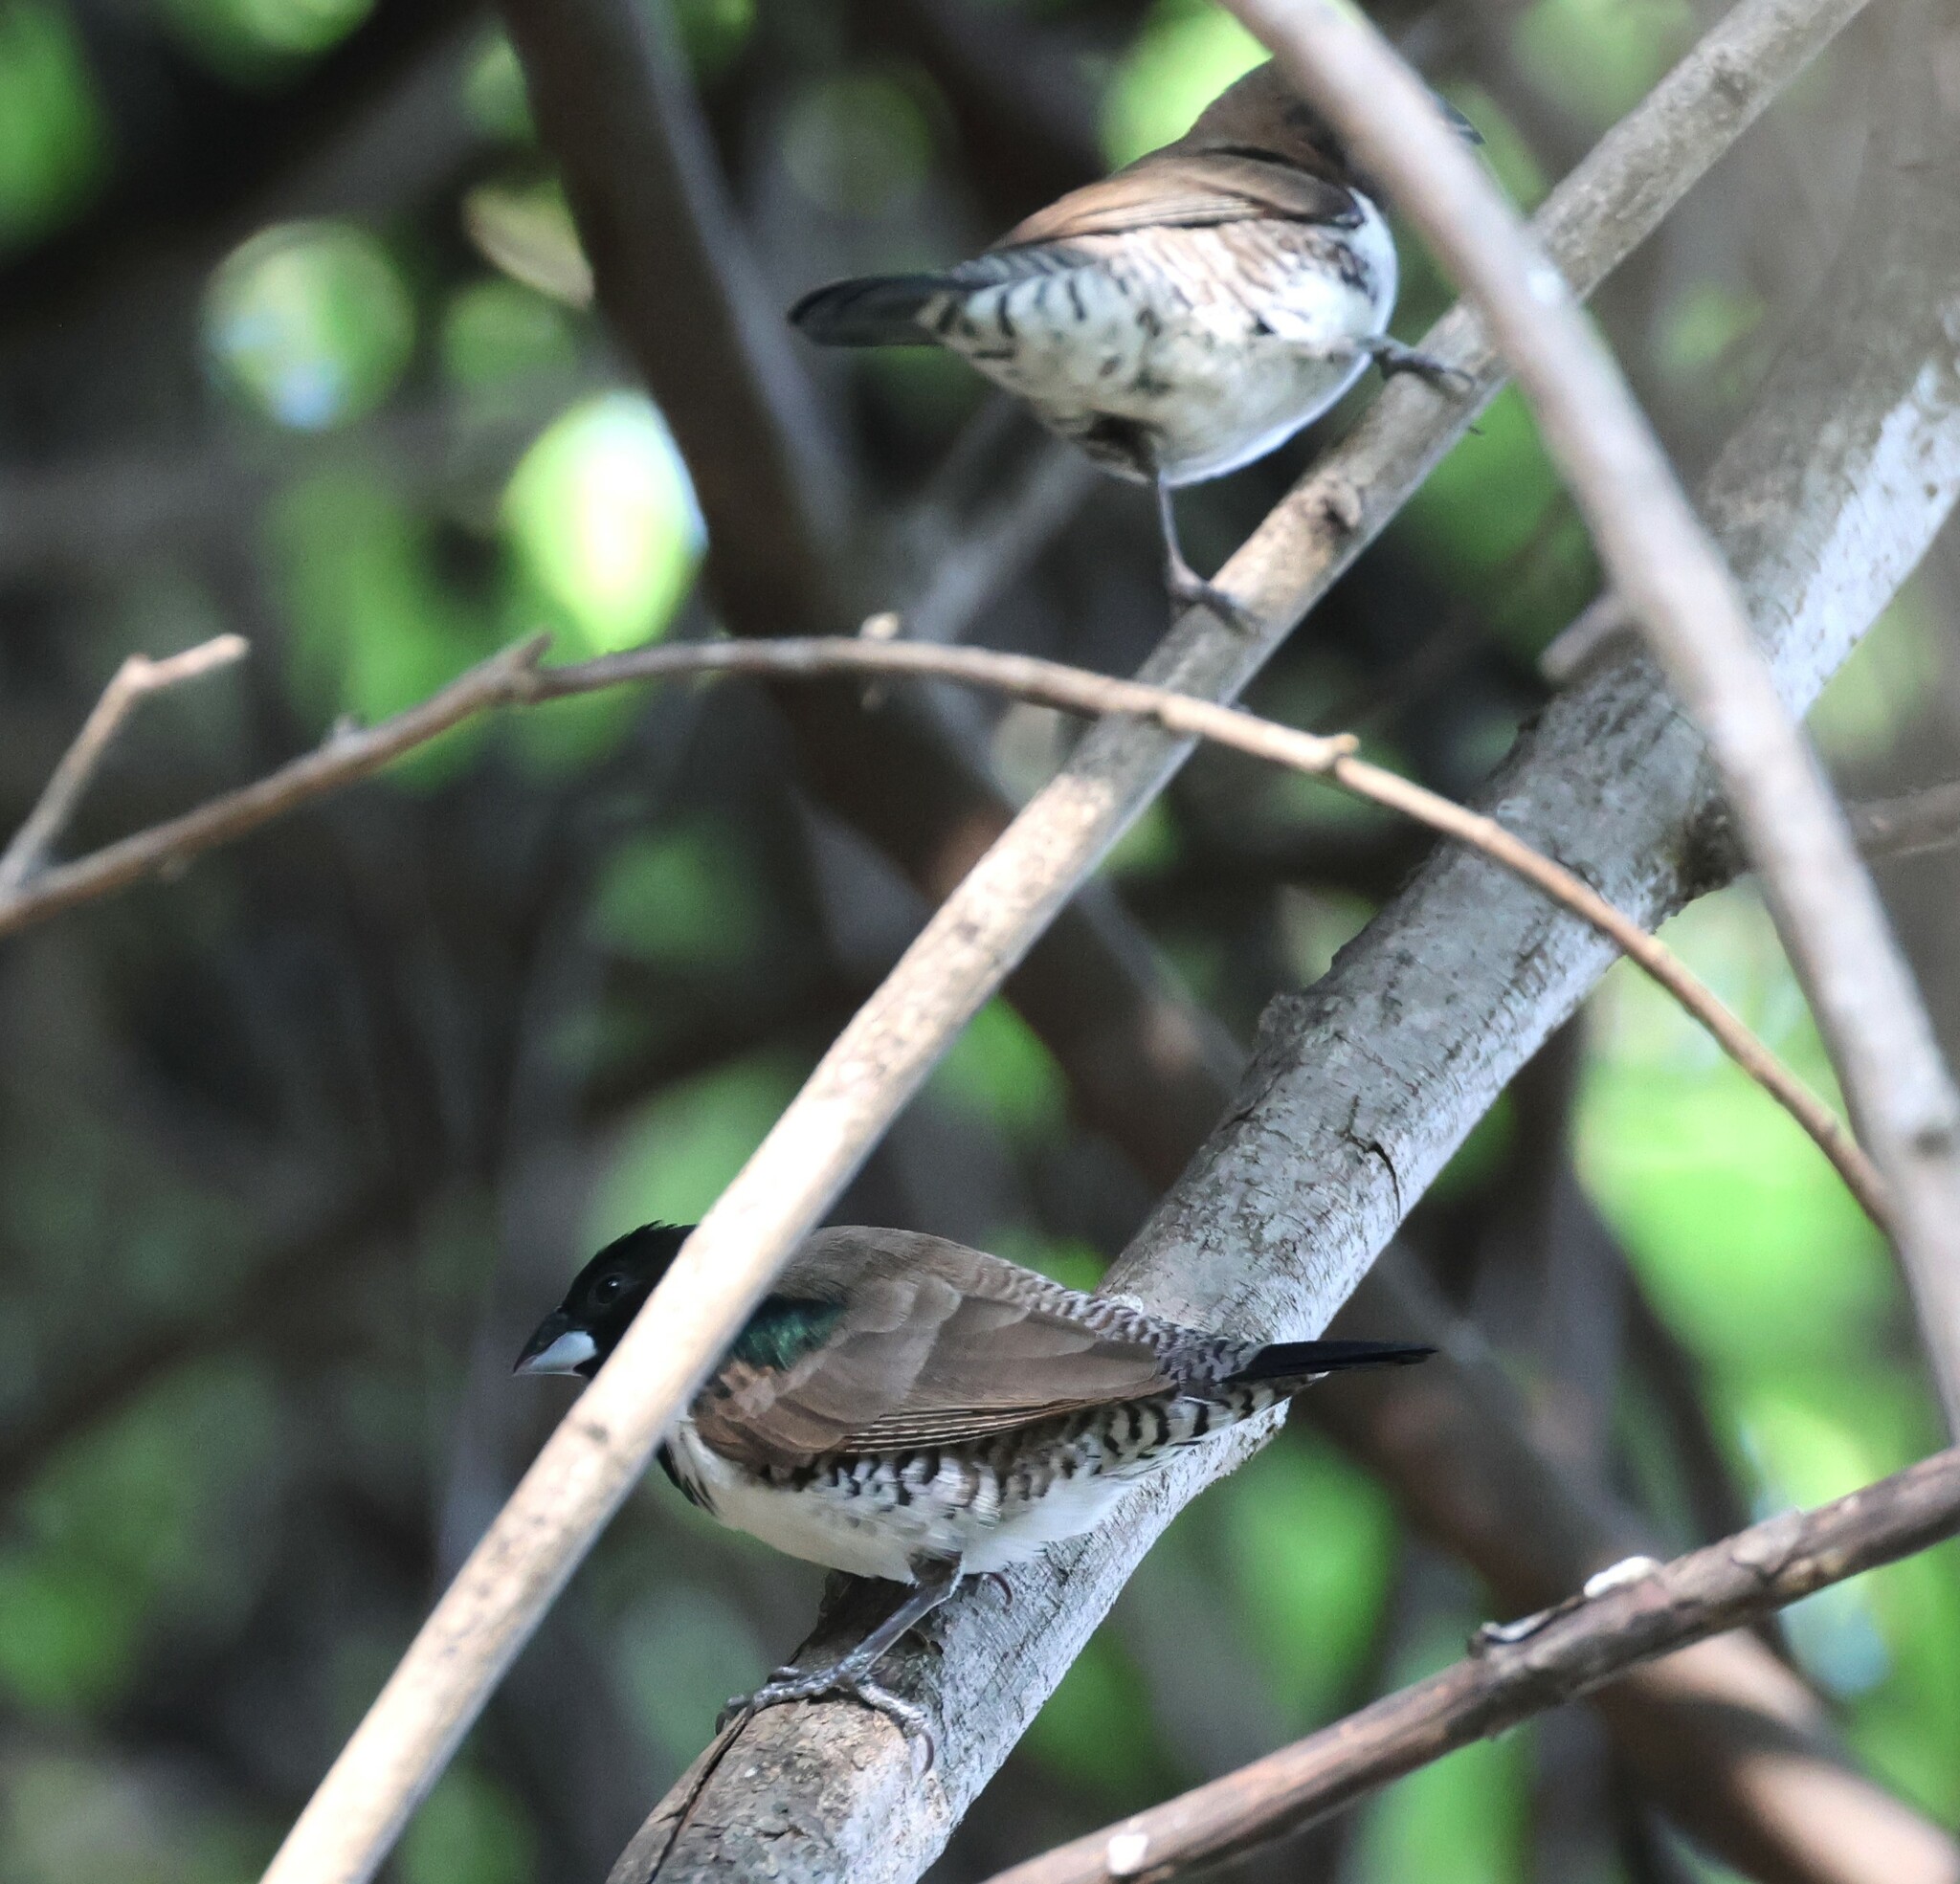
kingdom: Animalia
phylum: Chordata
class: Aves
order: Passeriformes
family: Estrildidae
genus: Lonchura
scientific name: Lonchura cucullata
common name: Bronze mannikin
